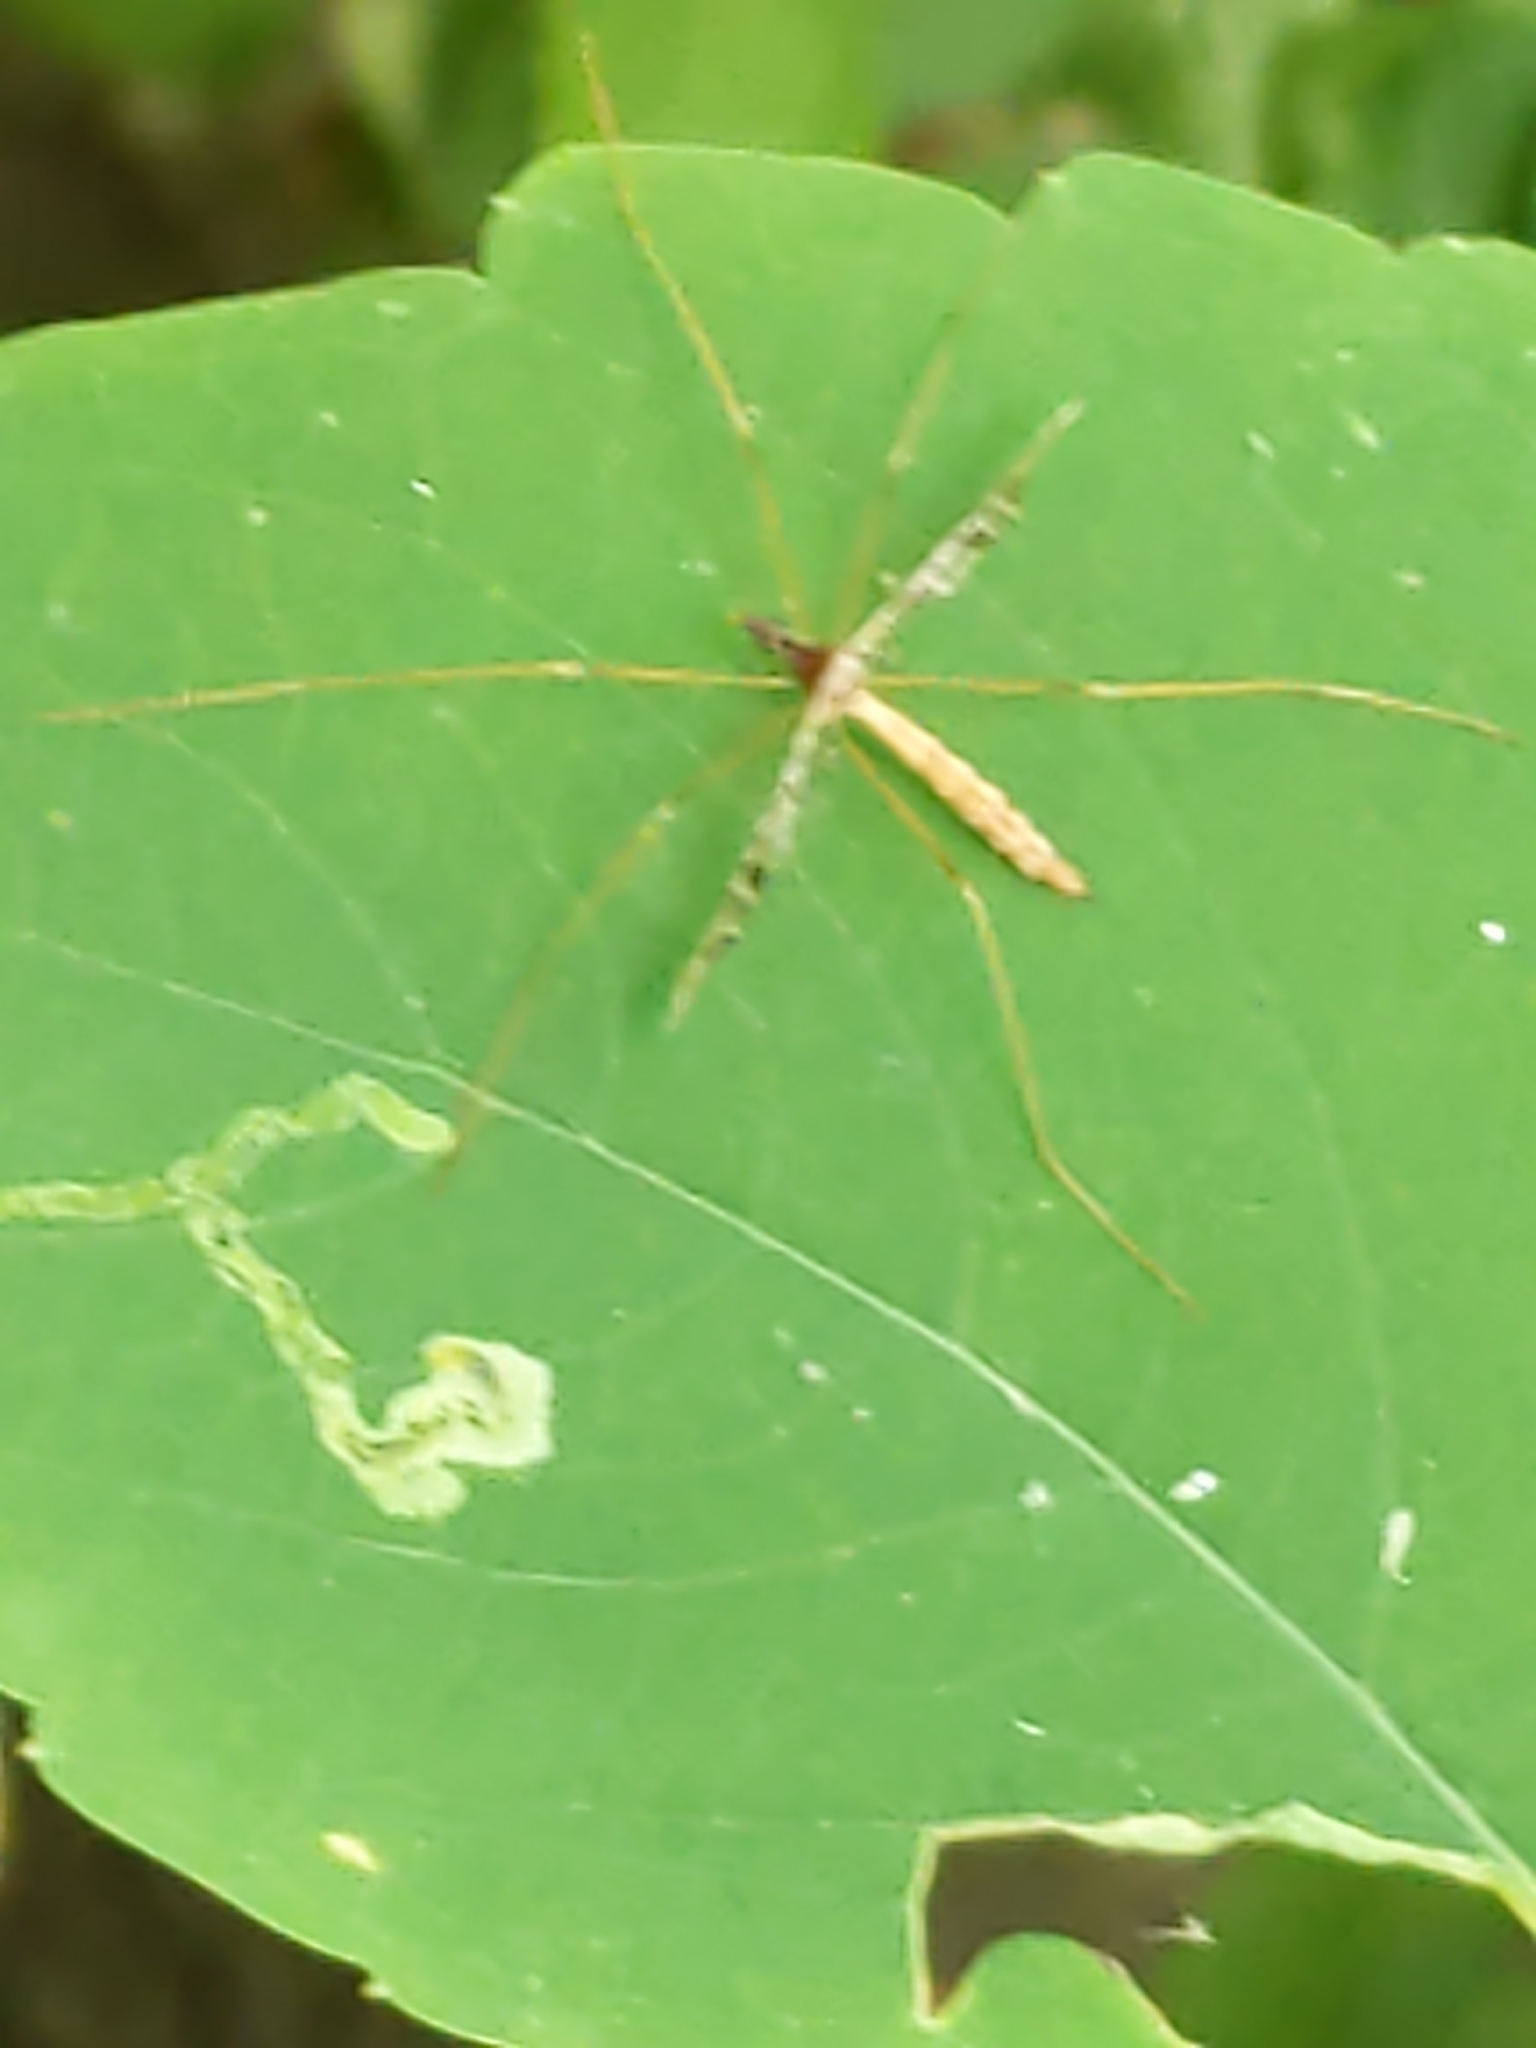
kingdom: Animalia
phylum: Arthropoda
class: Insecta
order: Diptera
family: Limoniidae
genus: Epiphragma
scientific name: Epiphragma solatrix
